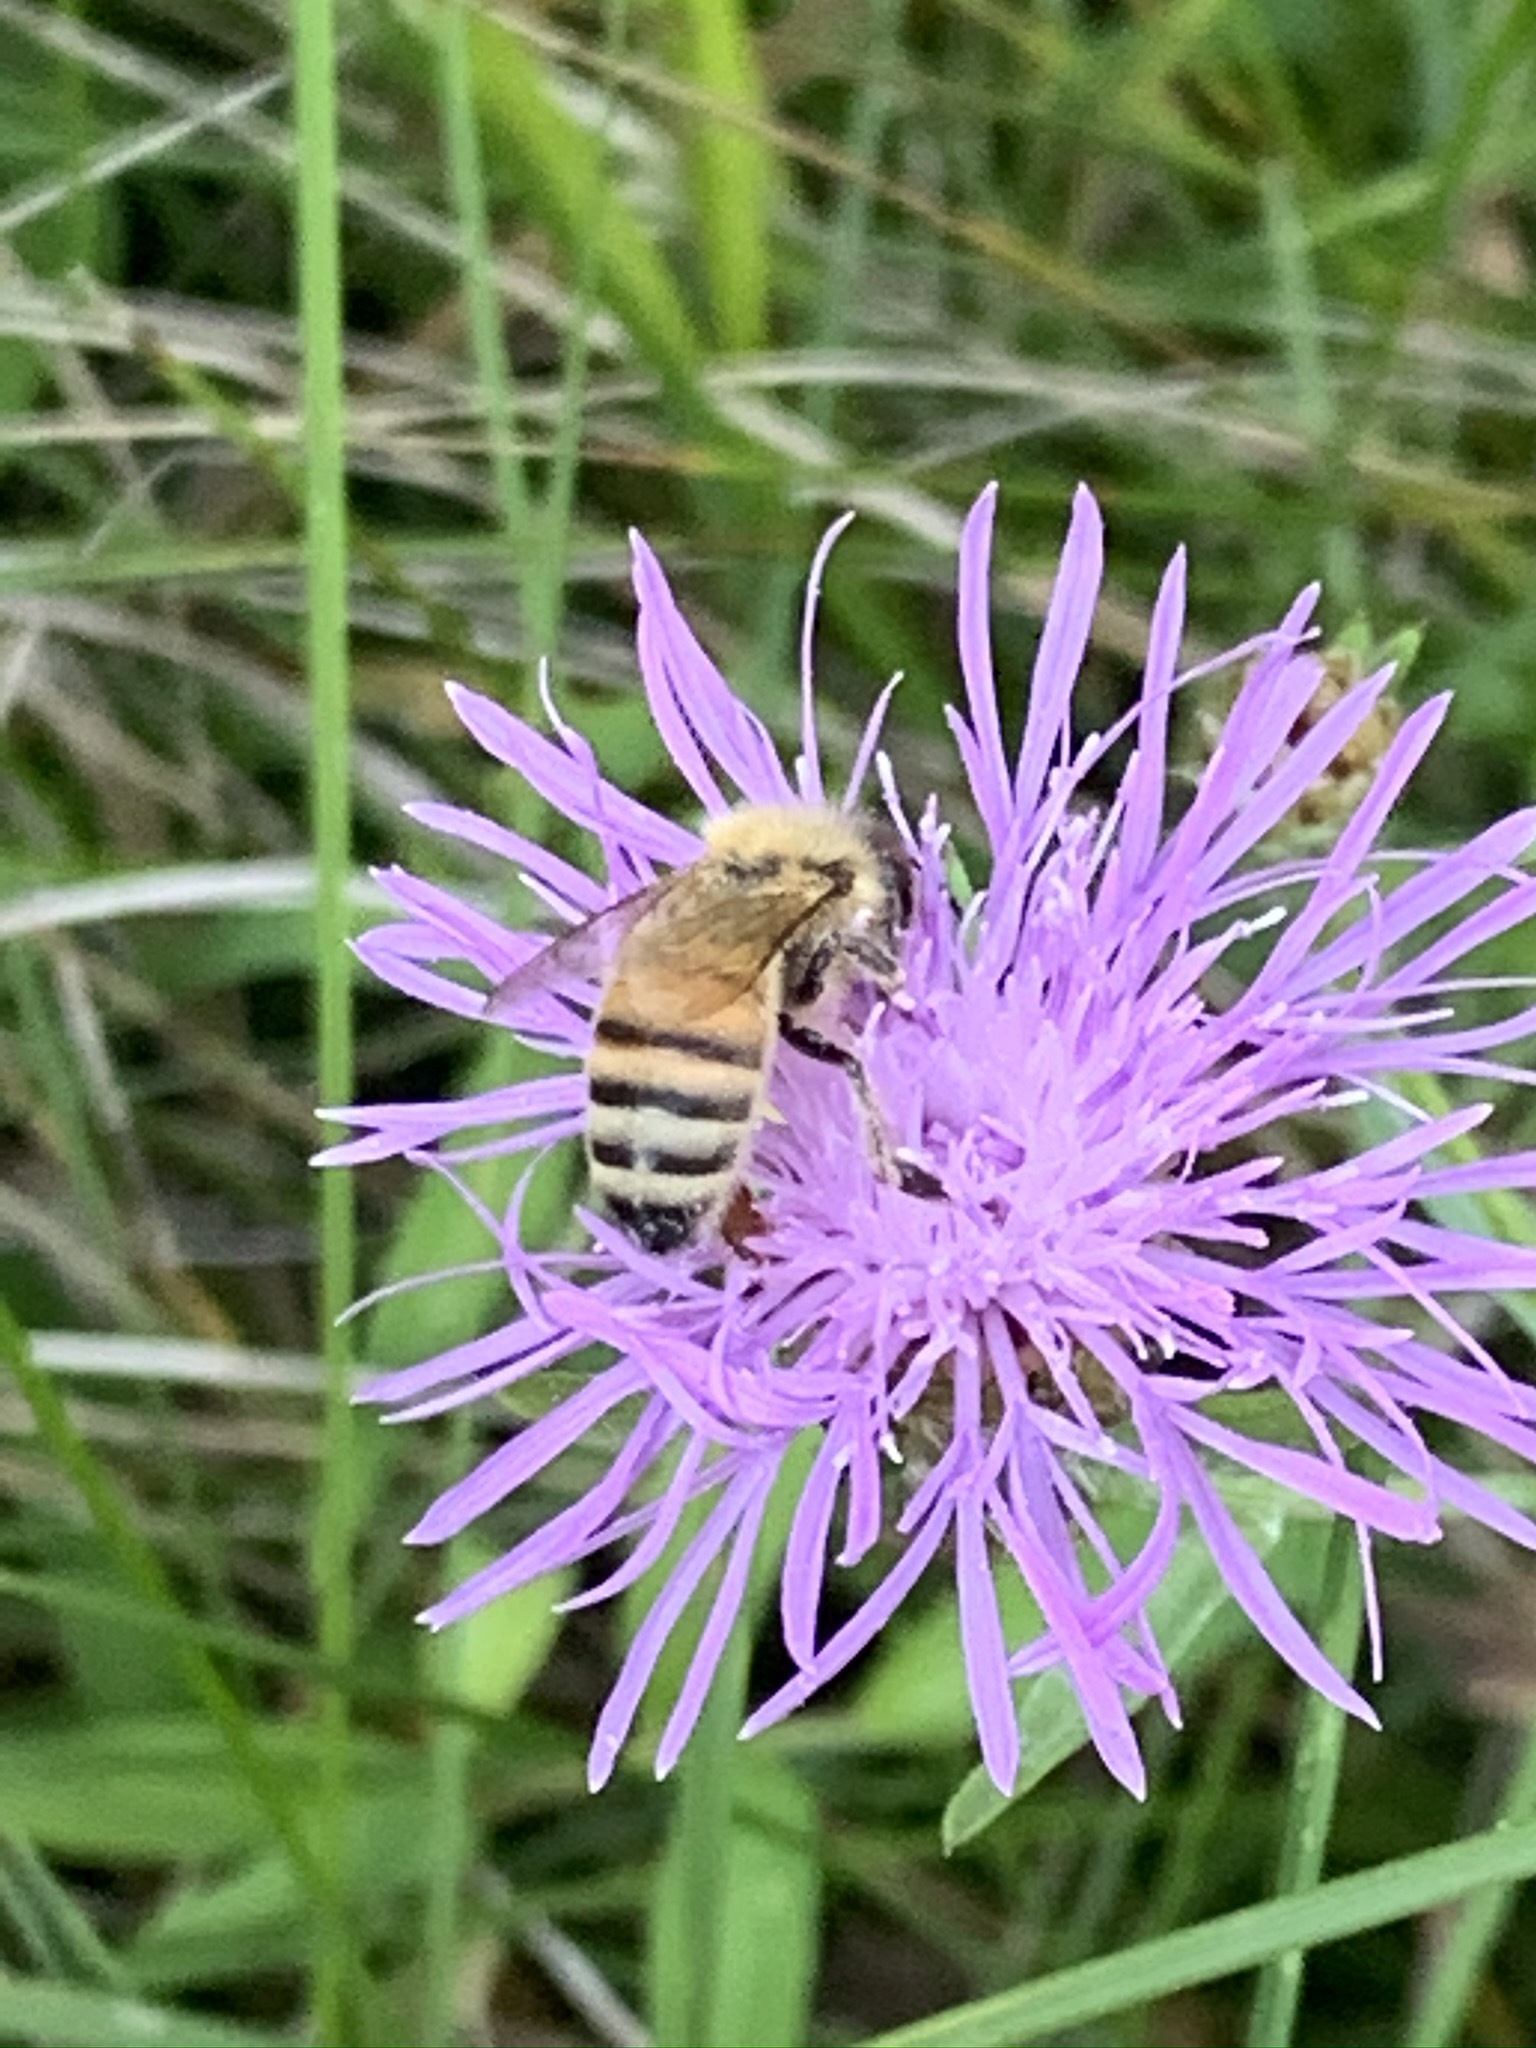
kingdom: Animalia
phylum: Arthropoda
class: Insecta
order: Hymenoptera
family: Apidae
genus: Apis
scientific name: Apis mellifera
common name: Honey bee
